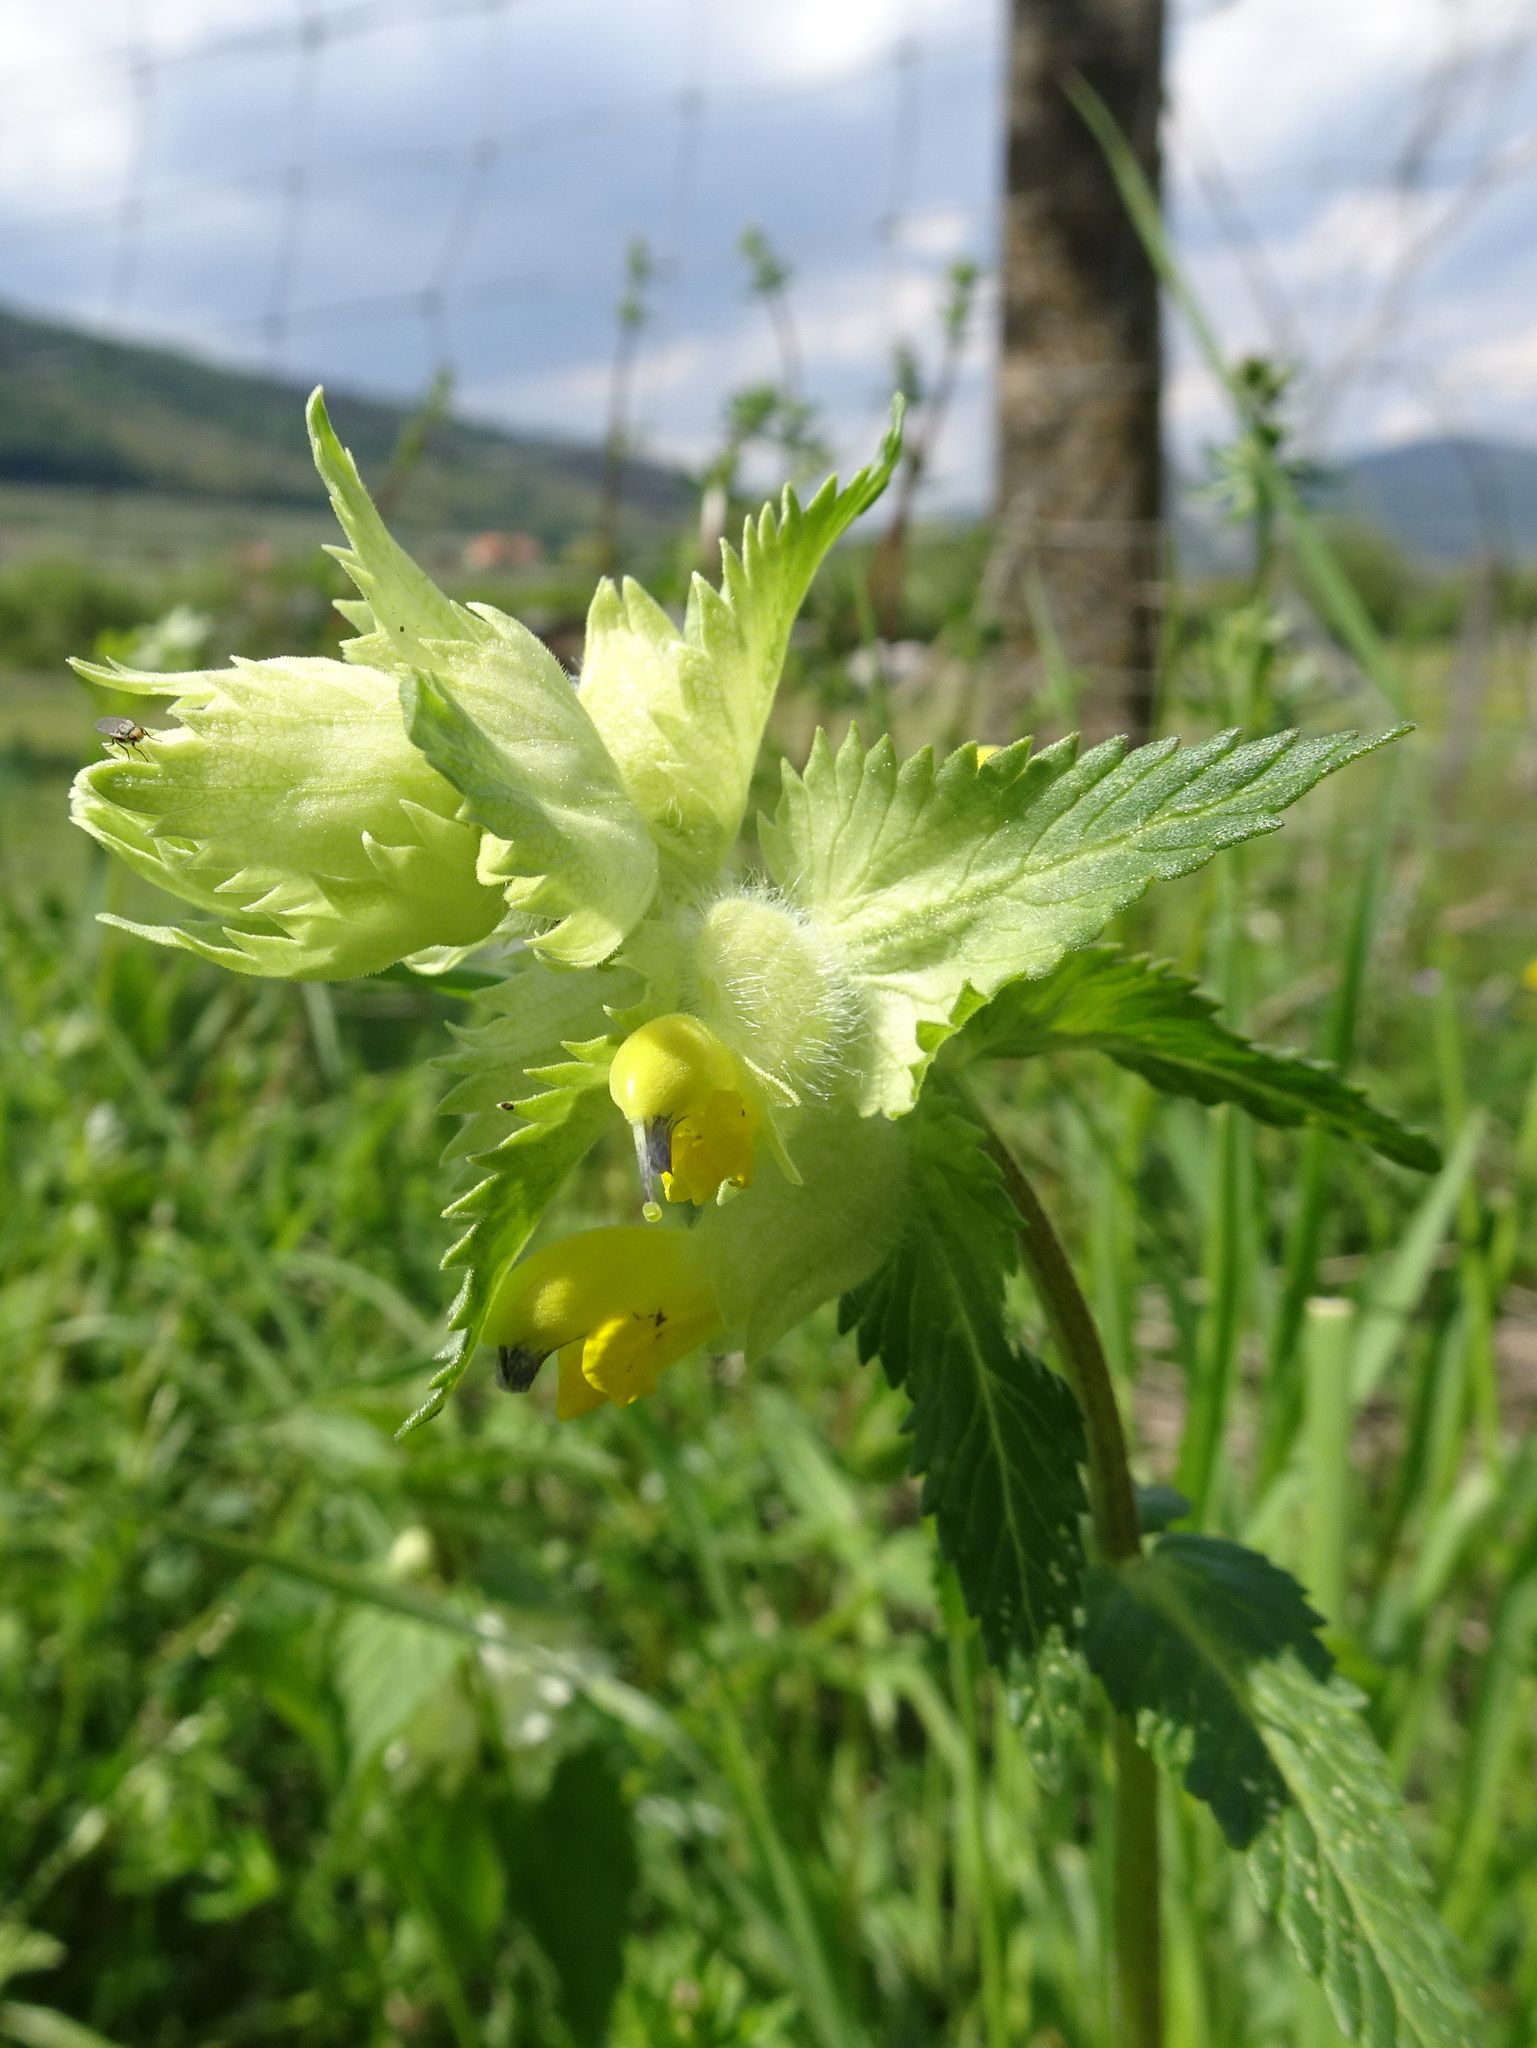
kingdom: Plantae
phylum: Tracheophyta
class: Magnoliopsida
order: Lamiales
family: Orobanchaceae
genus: Rhinanthus
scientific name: Rhinanthus alectorolophus
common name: Greater yellow-rattle
